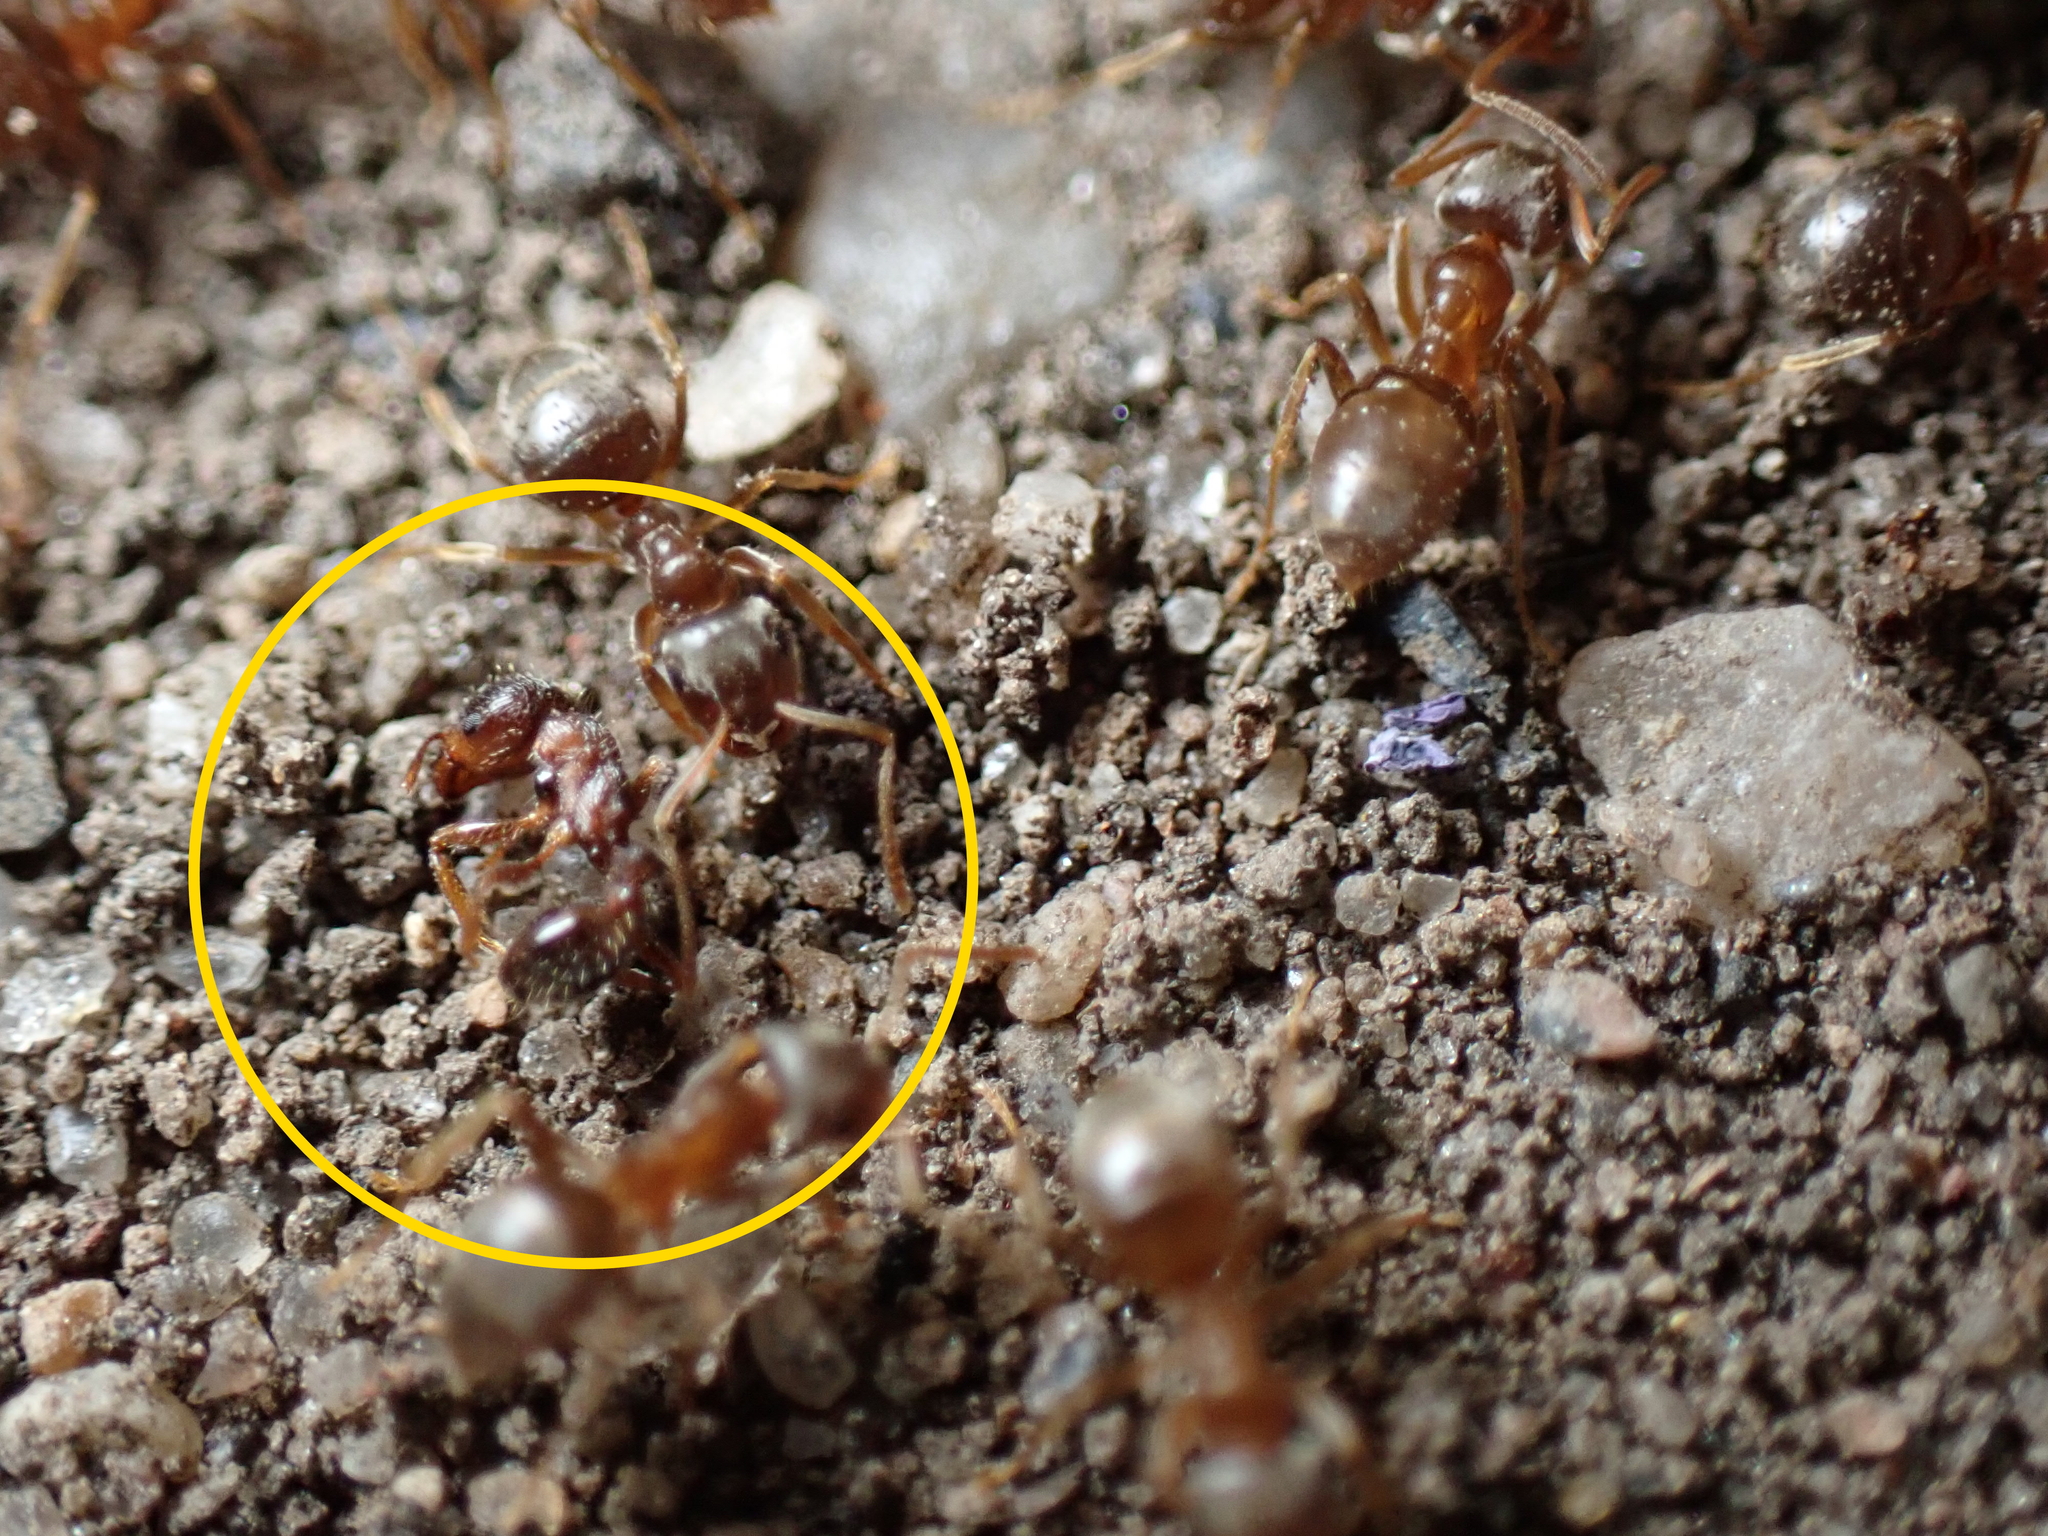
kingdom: Animalia
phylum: Arthropoda
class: Insecta
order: Hymenoptera
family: Formicidae
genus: Tetramorium
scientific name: Tetramorium immigrans
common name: Pavement ant
